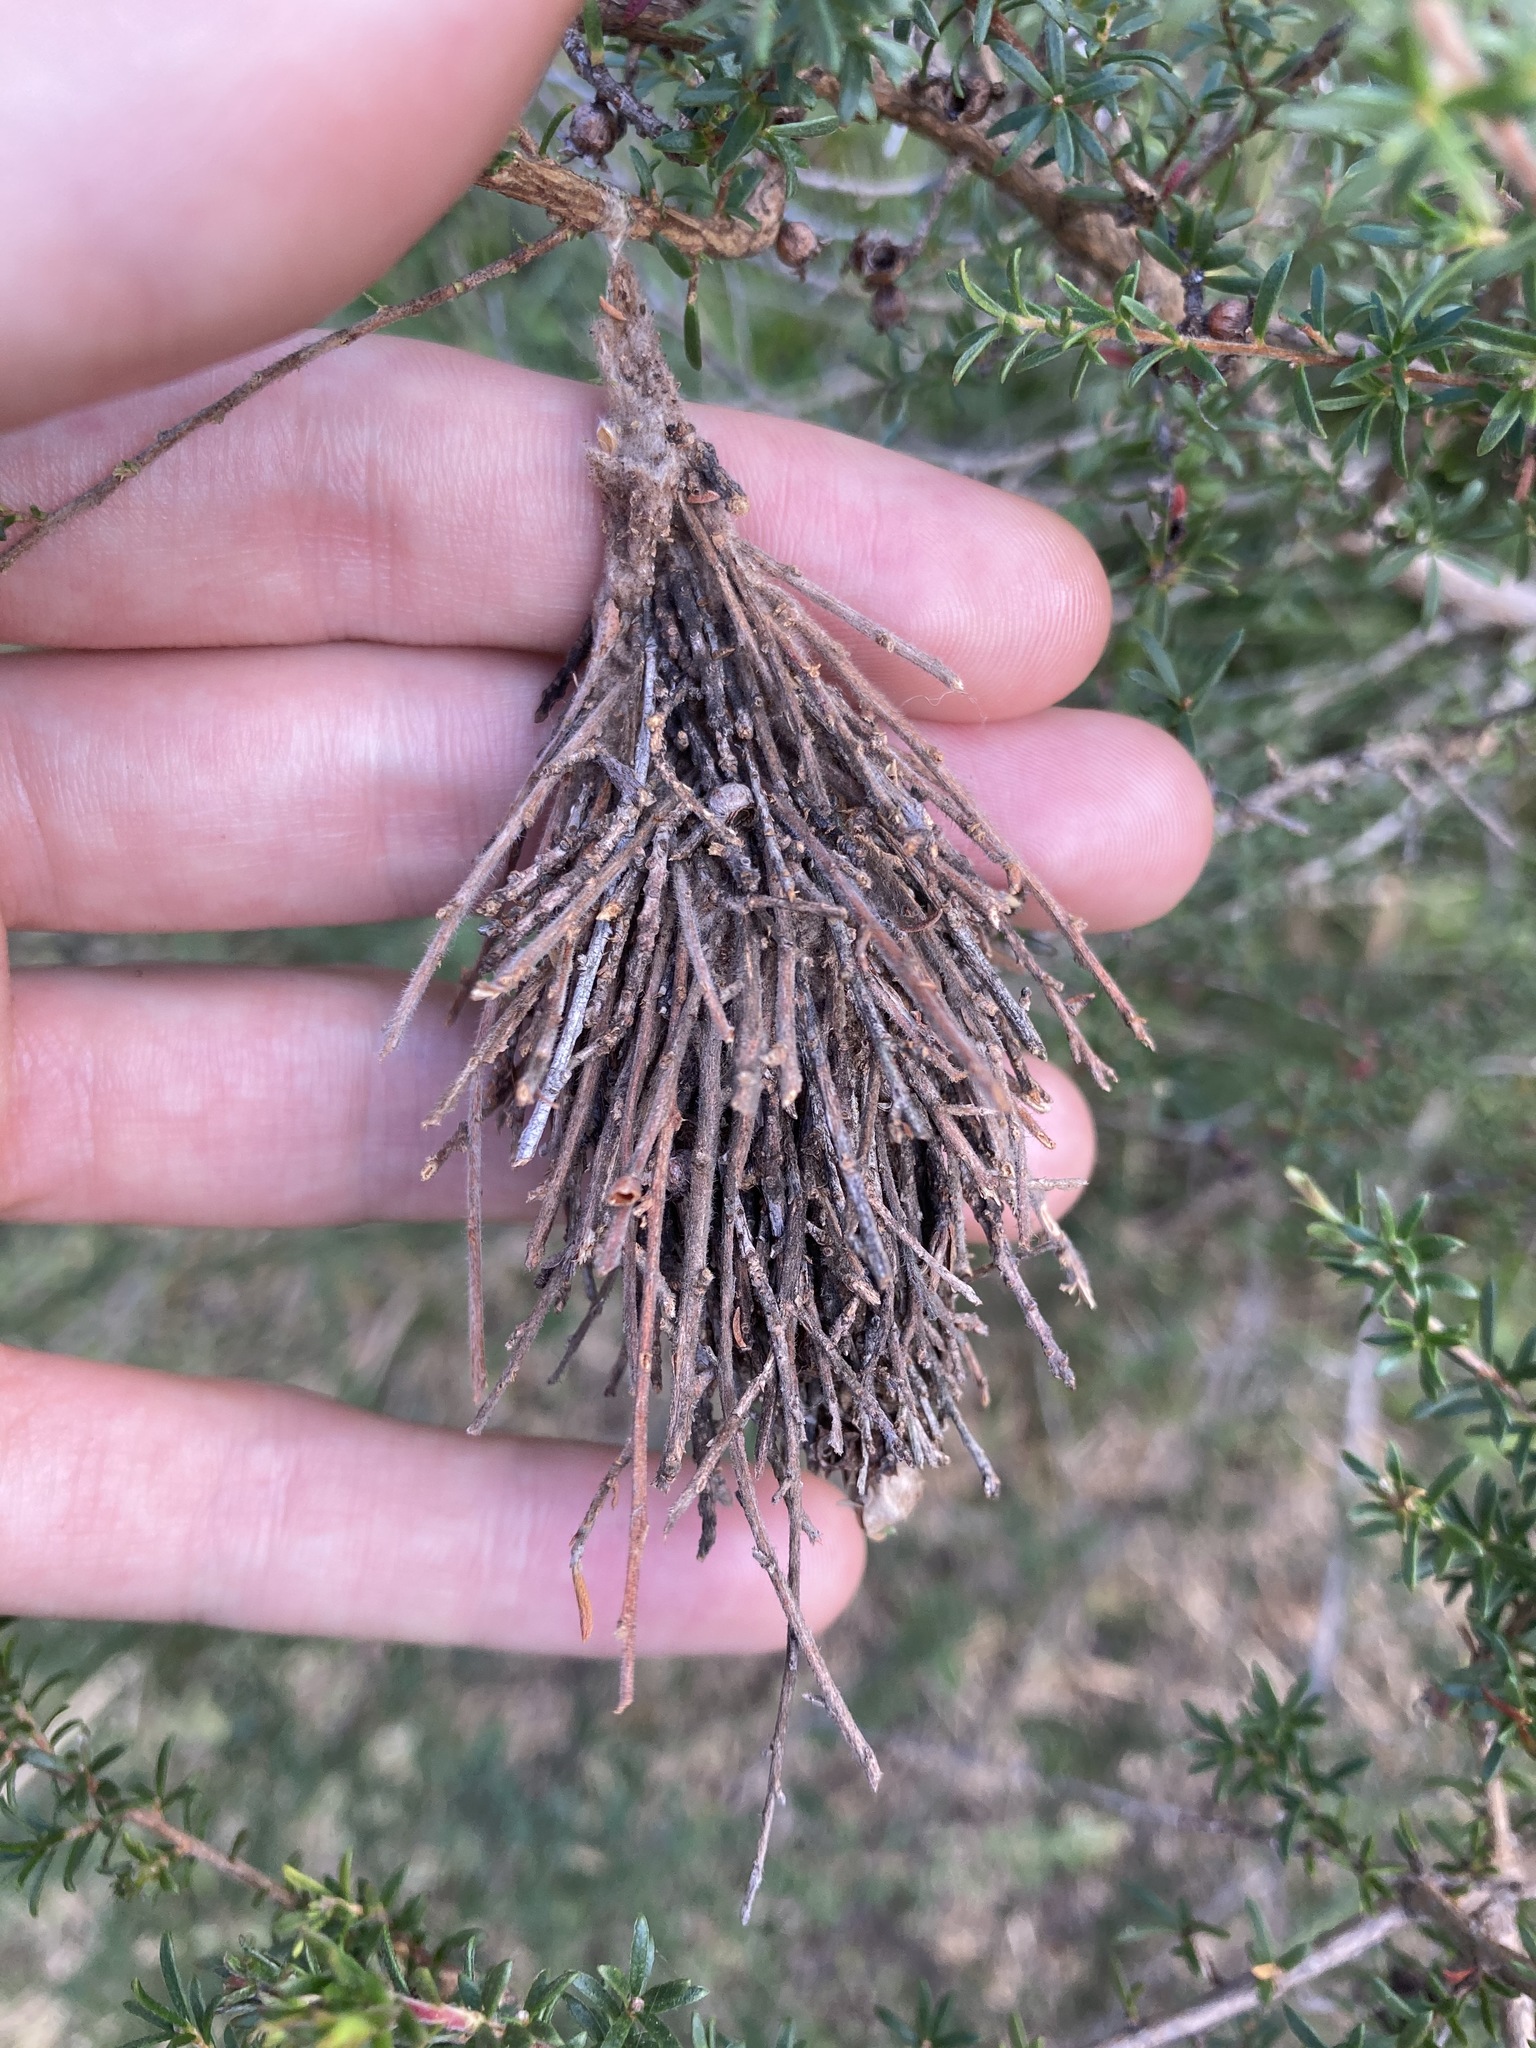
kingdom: Animalia
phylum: Arthropoda
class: Insecta
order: Lepidoptera
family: Psychidae
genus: Hyalarcta
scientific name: Hyalarcta huebneri
